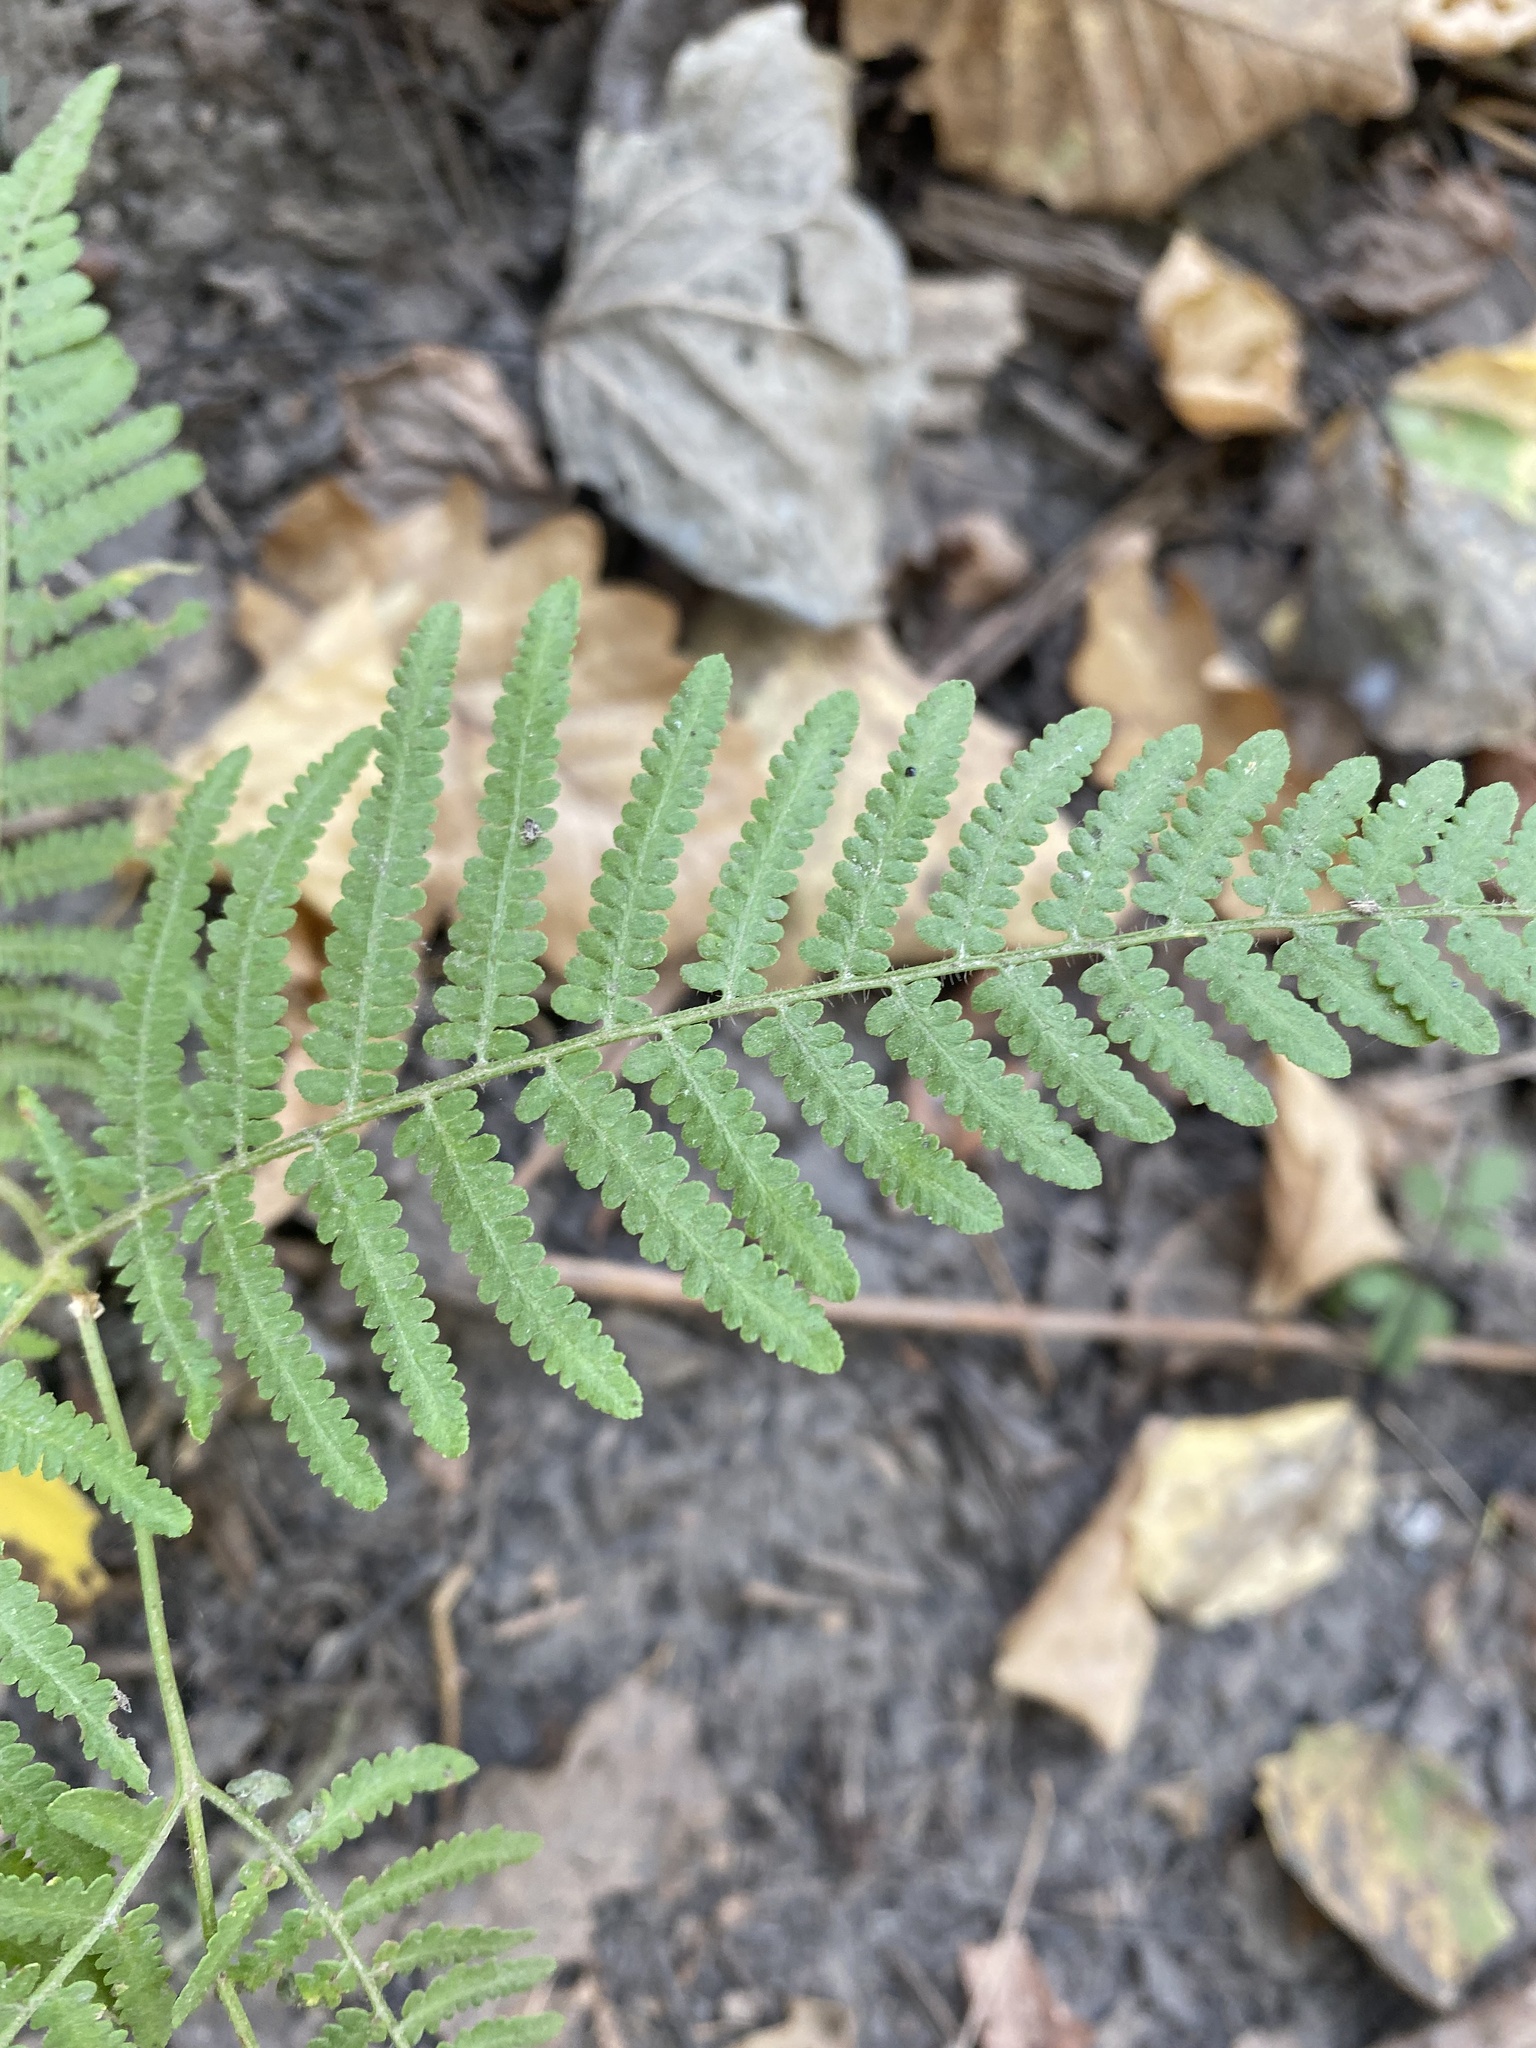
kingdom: Plantae
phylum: Tracheophyta
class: Polypodiopsida
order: Polypodiales
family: Dennstaedtiaceae
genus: Pteridium
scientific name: Pteridium tauricum
